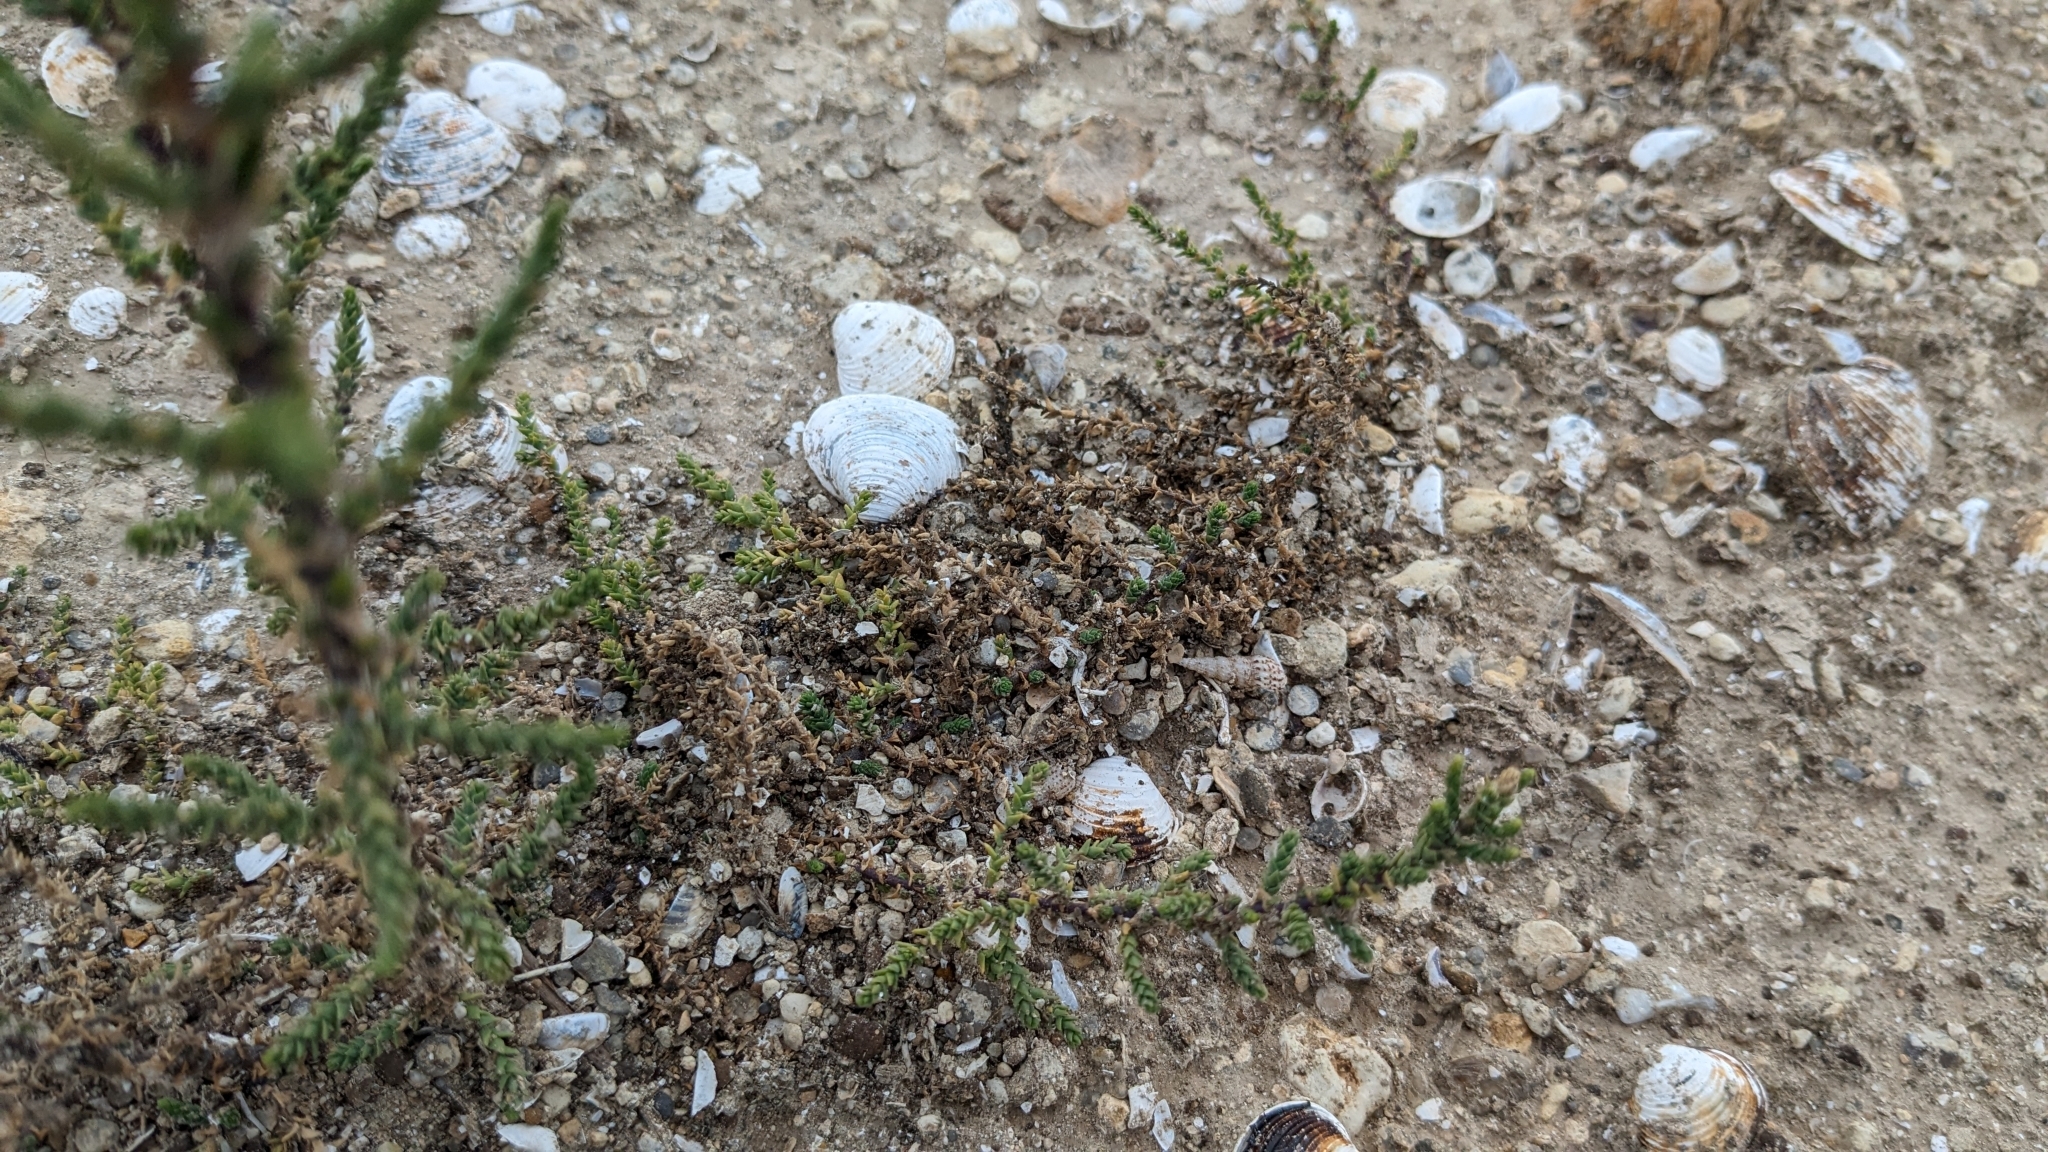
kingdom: Plantae
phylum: Tracheophyta
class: Magnoliopsida
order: Caryophyllales
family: Tamaricaceae
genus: Tamarix
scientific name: Tamarix ramosissima
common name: Pink tamarisk
